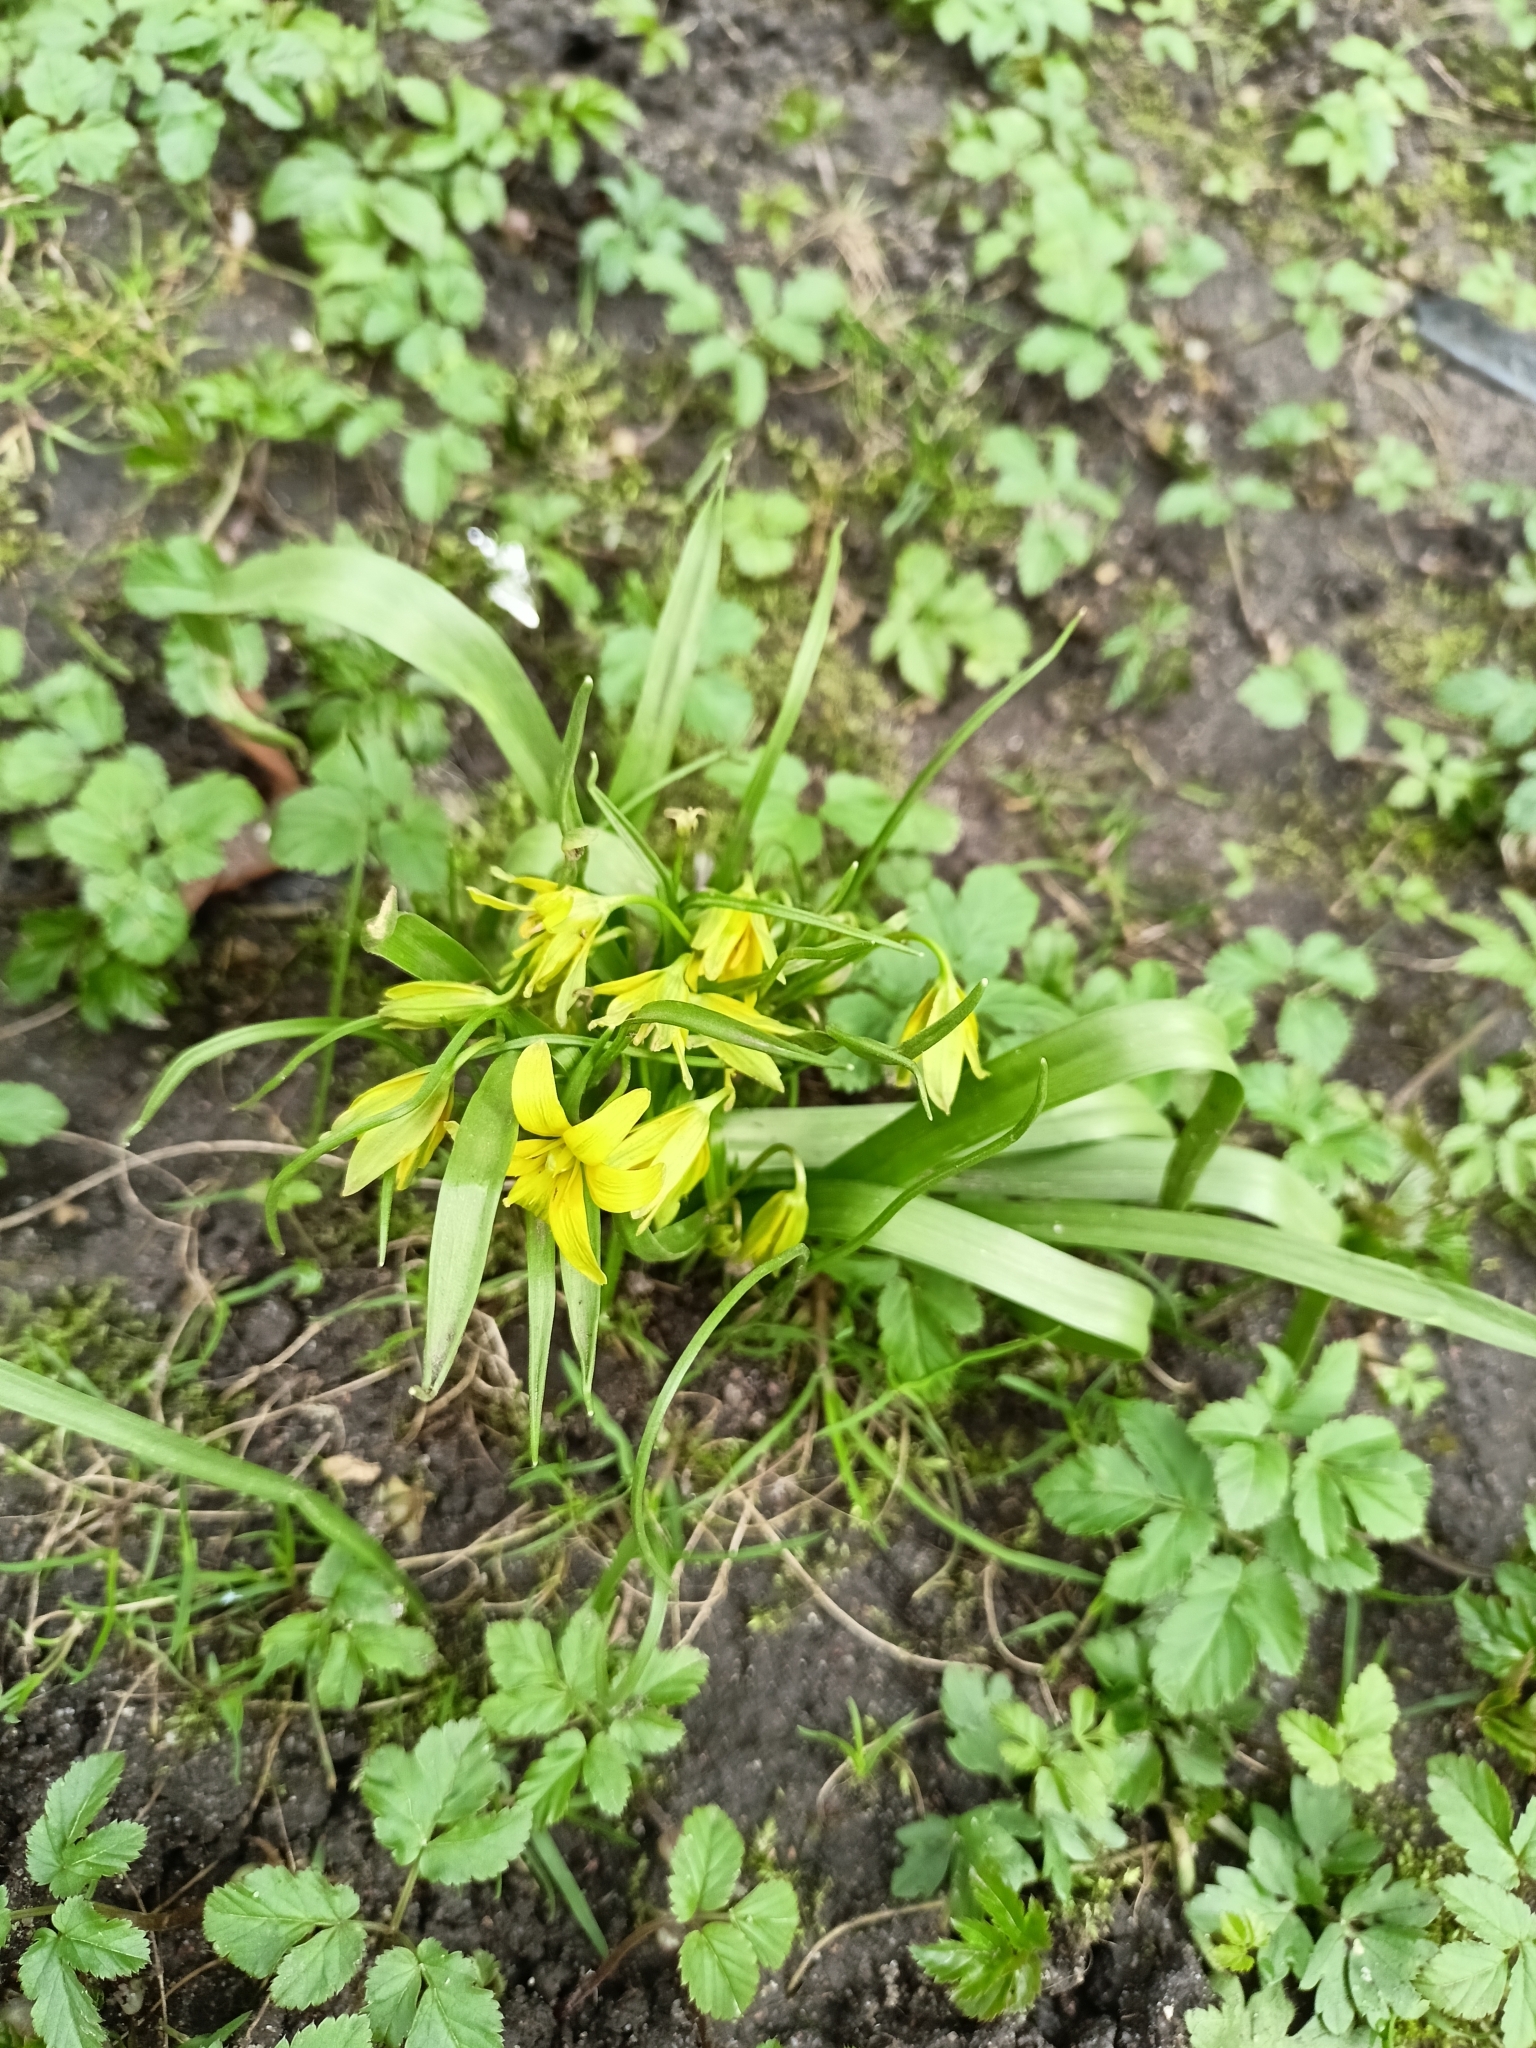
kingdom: Plantae
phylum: Tracheophyta
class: Liliopsida
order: Liliales
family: Liliaceae
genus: Gagea
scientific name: Gagea lutea
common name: Yellow star-of-bethlehem
